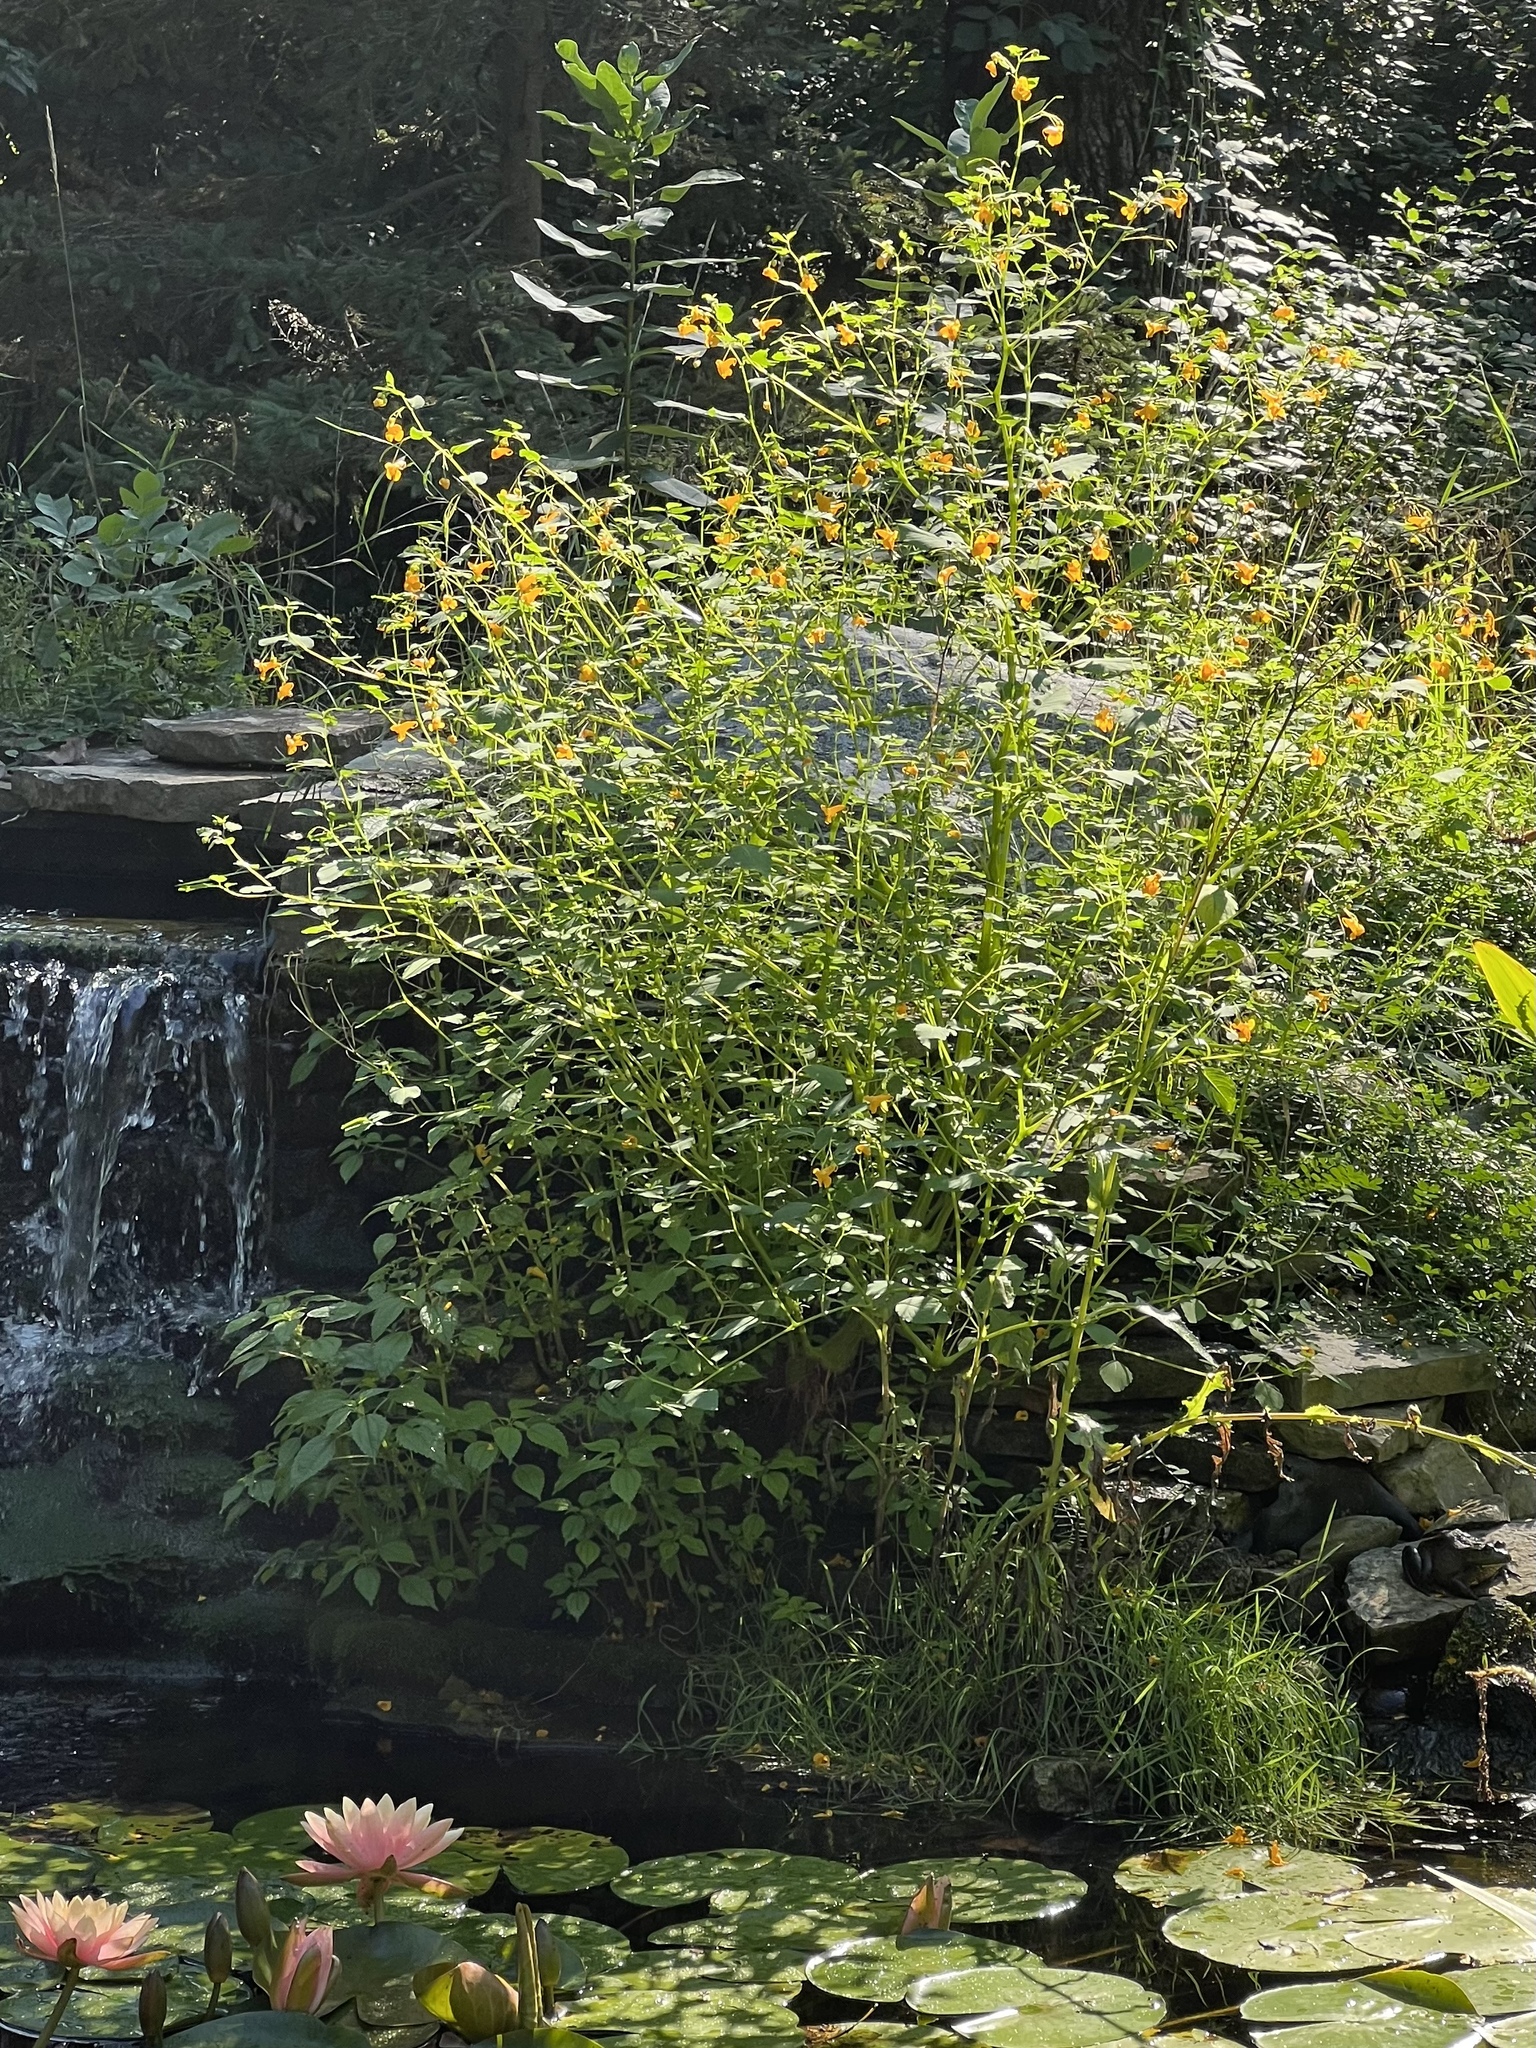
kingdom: Plantae
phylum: Tracheophyta
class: Magnoliopsida
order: Ericales
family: Balsaminaceae
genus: Impatiens
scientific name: Impatiens capensis
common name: Orange balsam
